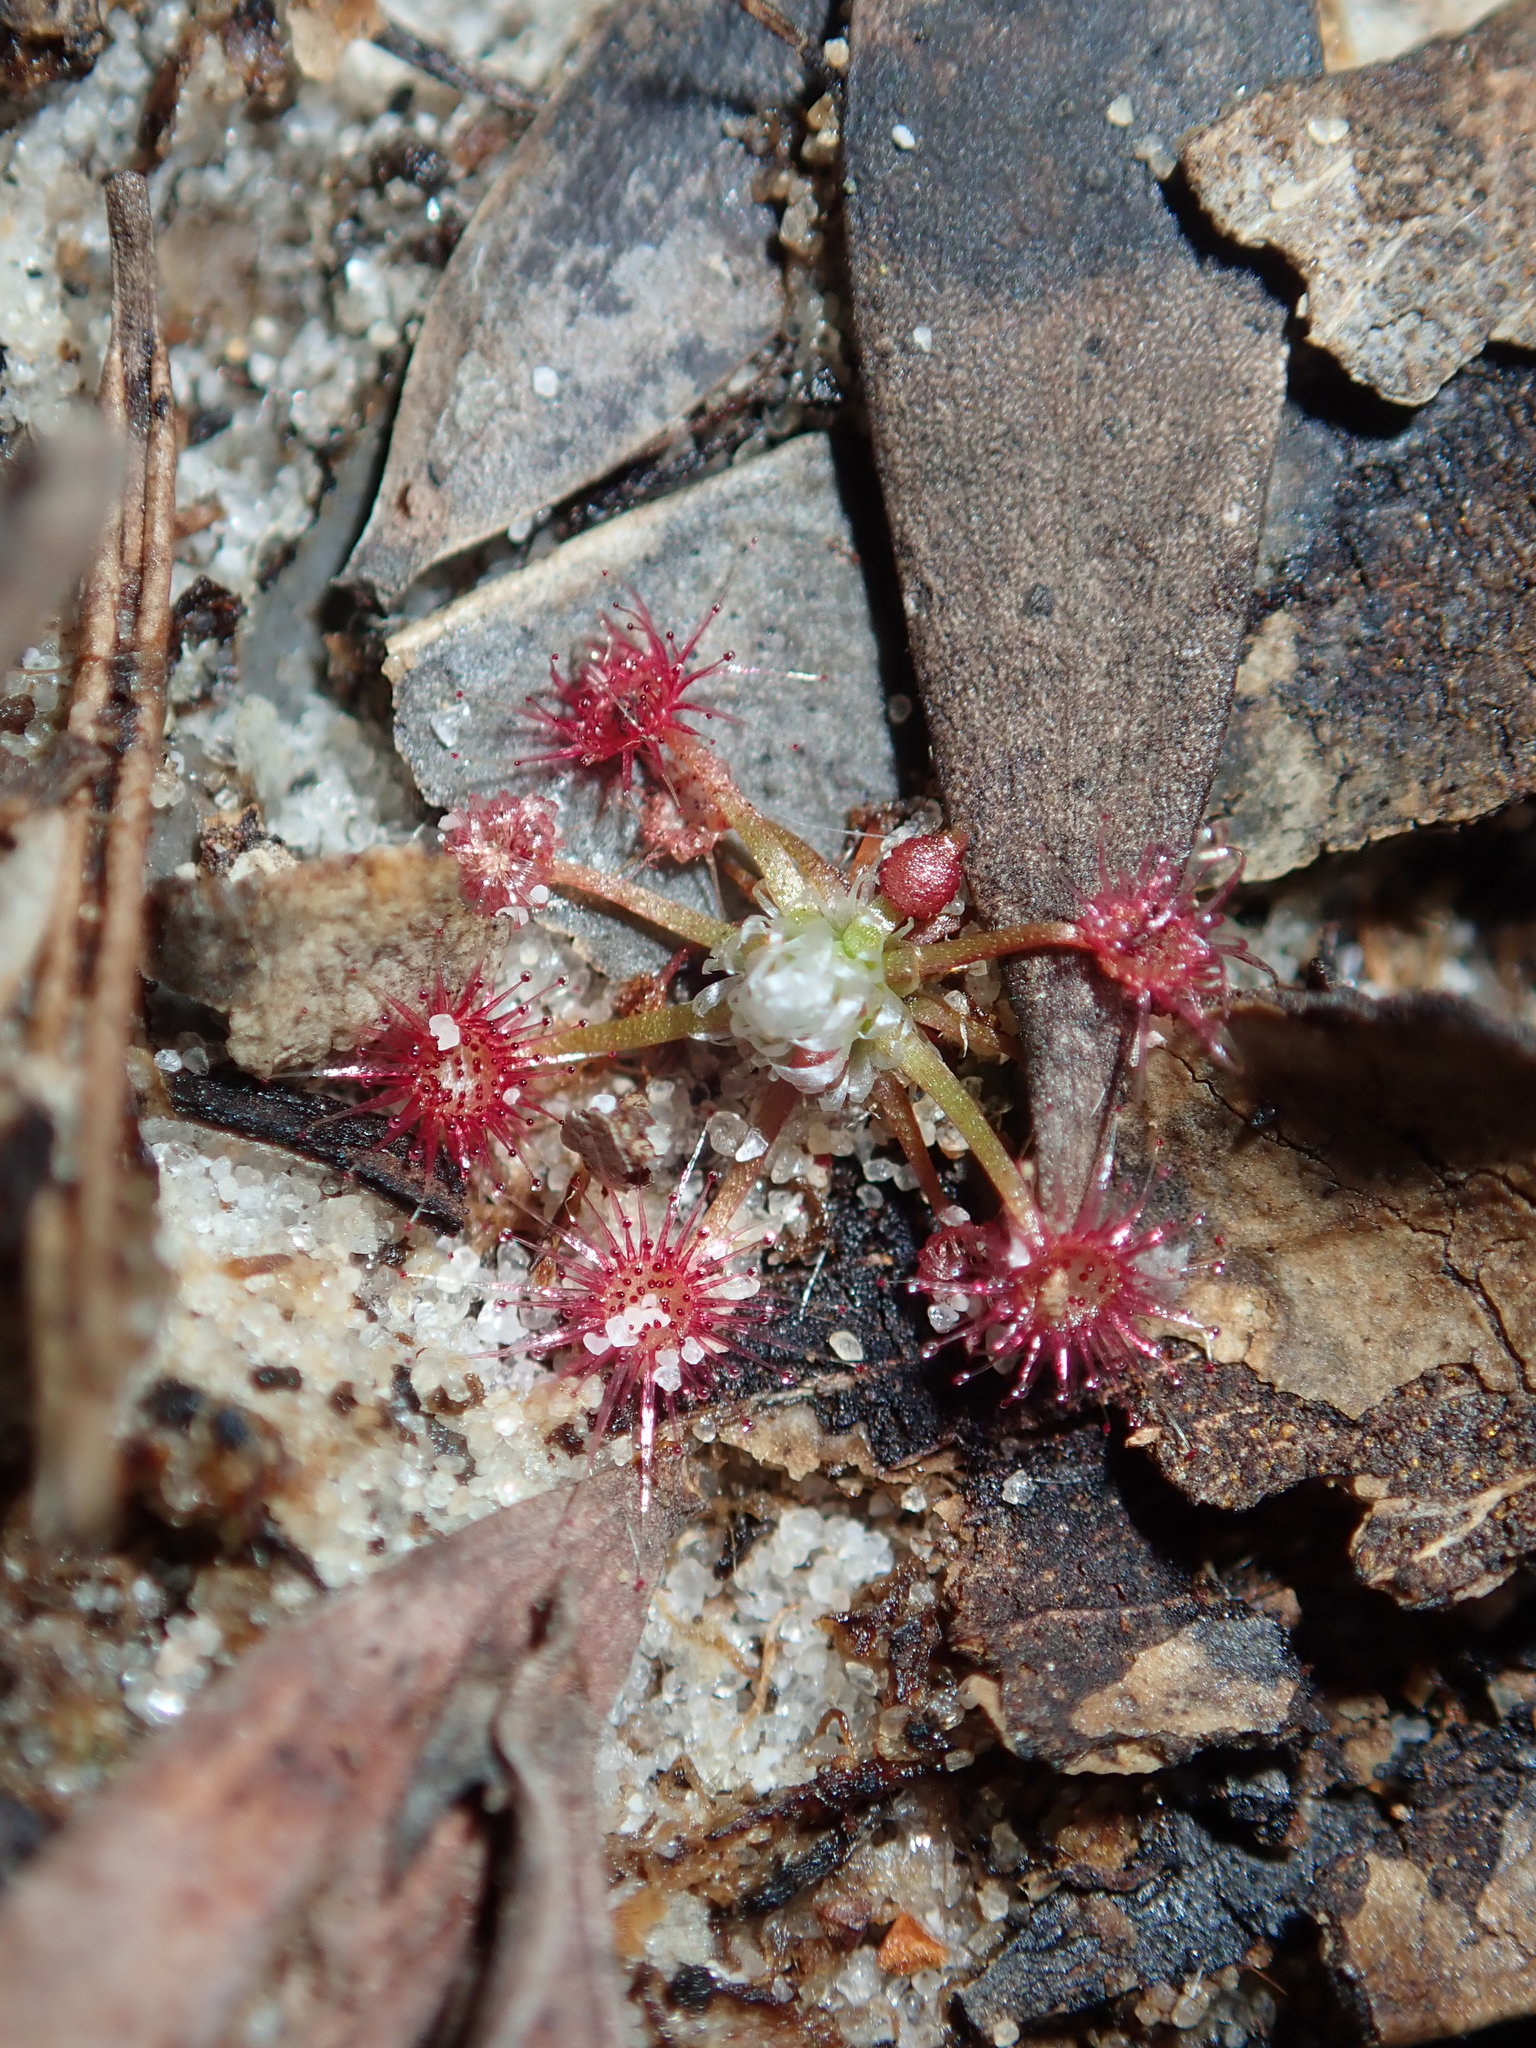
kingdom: Plantae
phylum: Tracheophyta
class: Magnoliopsida
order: Caryophyllales
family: Droseraceae
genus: Drosera
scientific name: Drosera pygmaea
